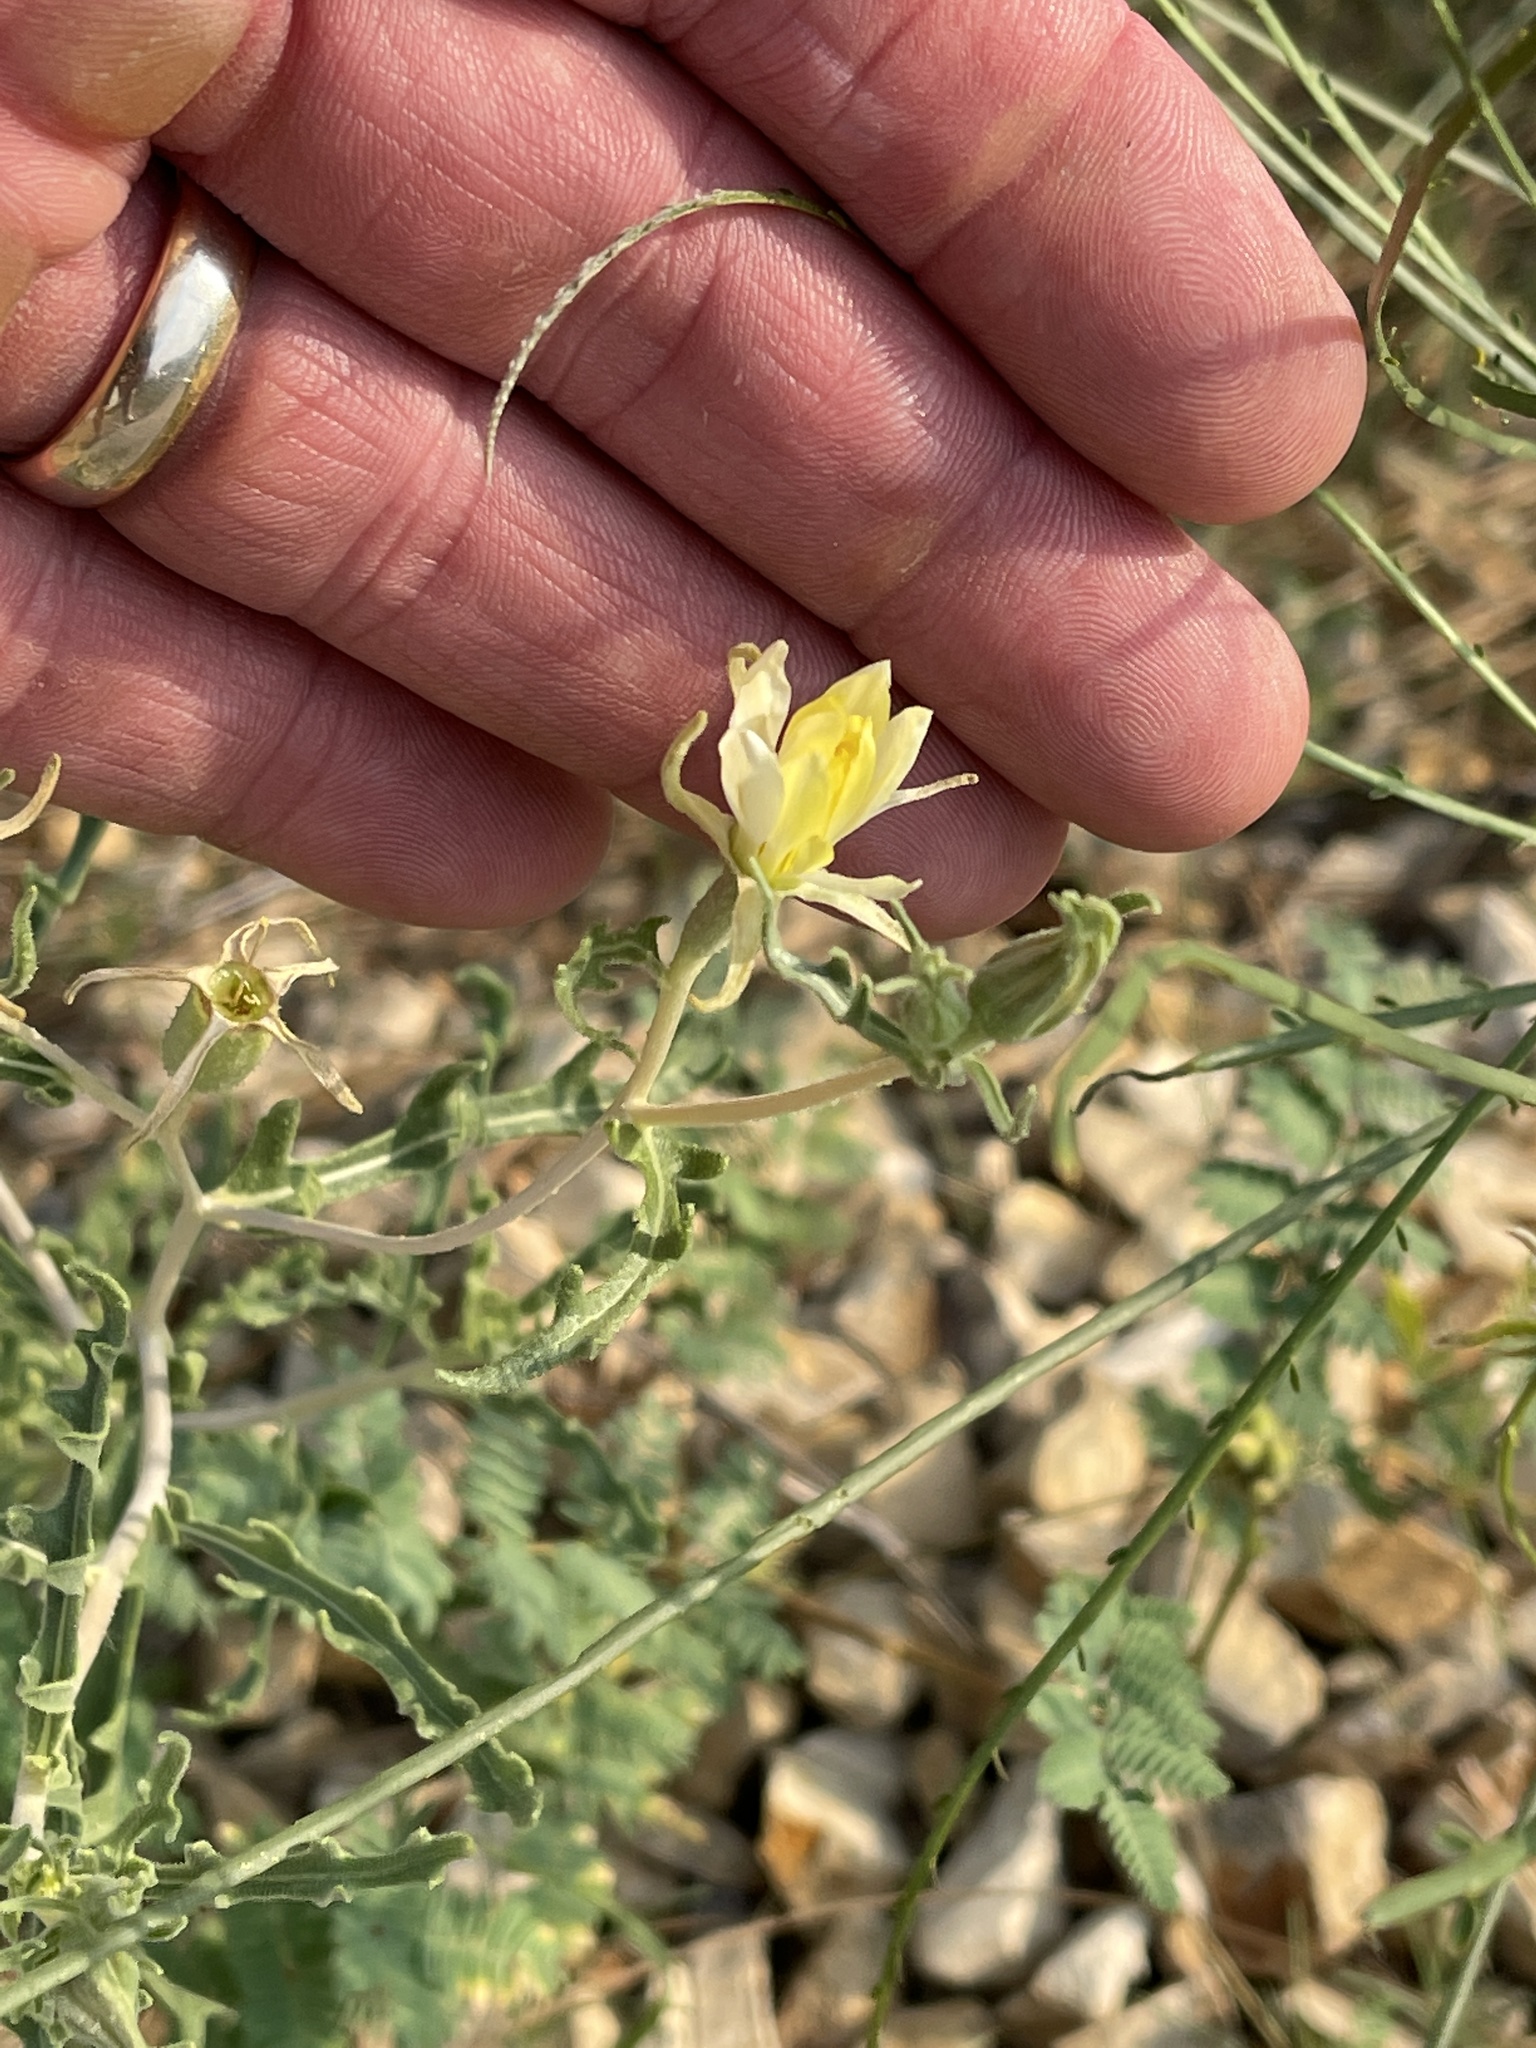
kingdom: Plantae
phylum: Tracheophyta
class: Magnoliopsida
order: Cornales
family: Loasaceae
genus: Mentzelia
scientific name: Mentzelia procera
